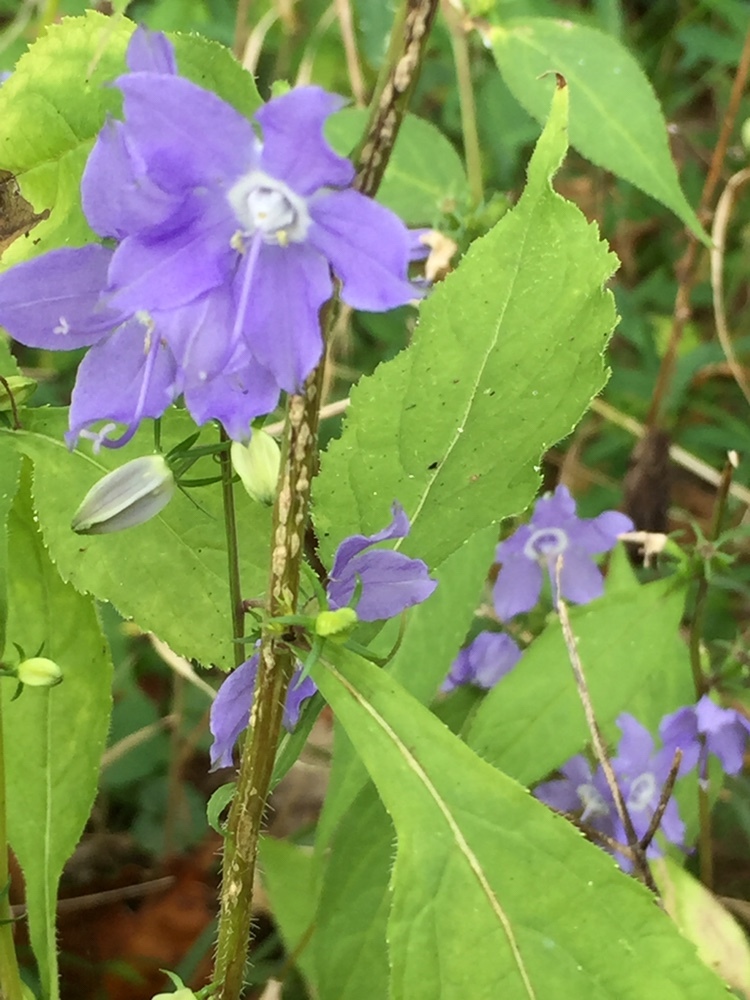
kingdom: Plantae
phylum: Tracheophyta
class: Magnoliopsida
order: Asterales
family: Campanulaceae
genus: Campanulastrum
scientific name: Campanulastrum americanum
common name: American bellflower
